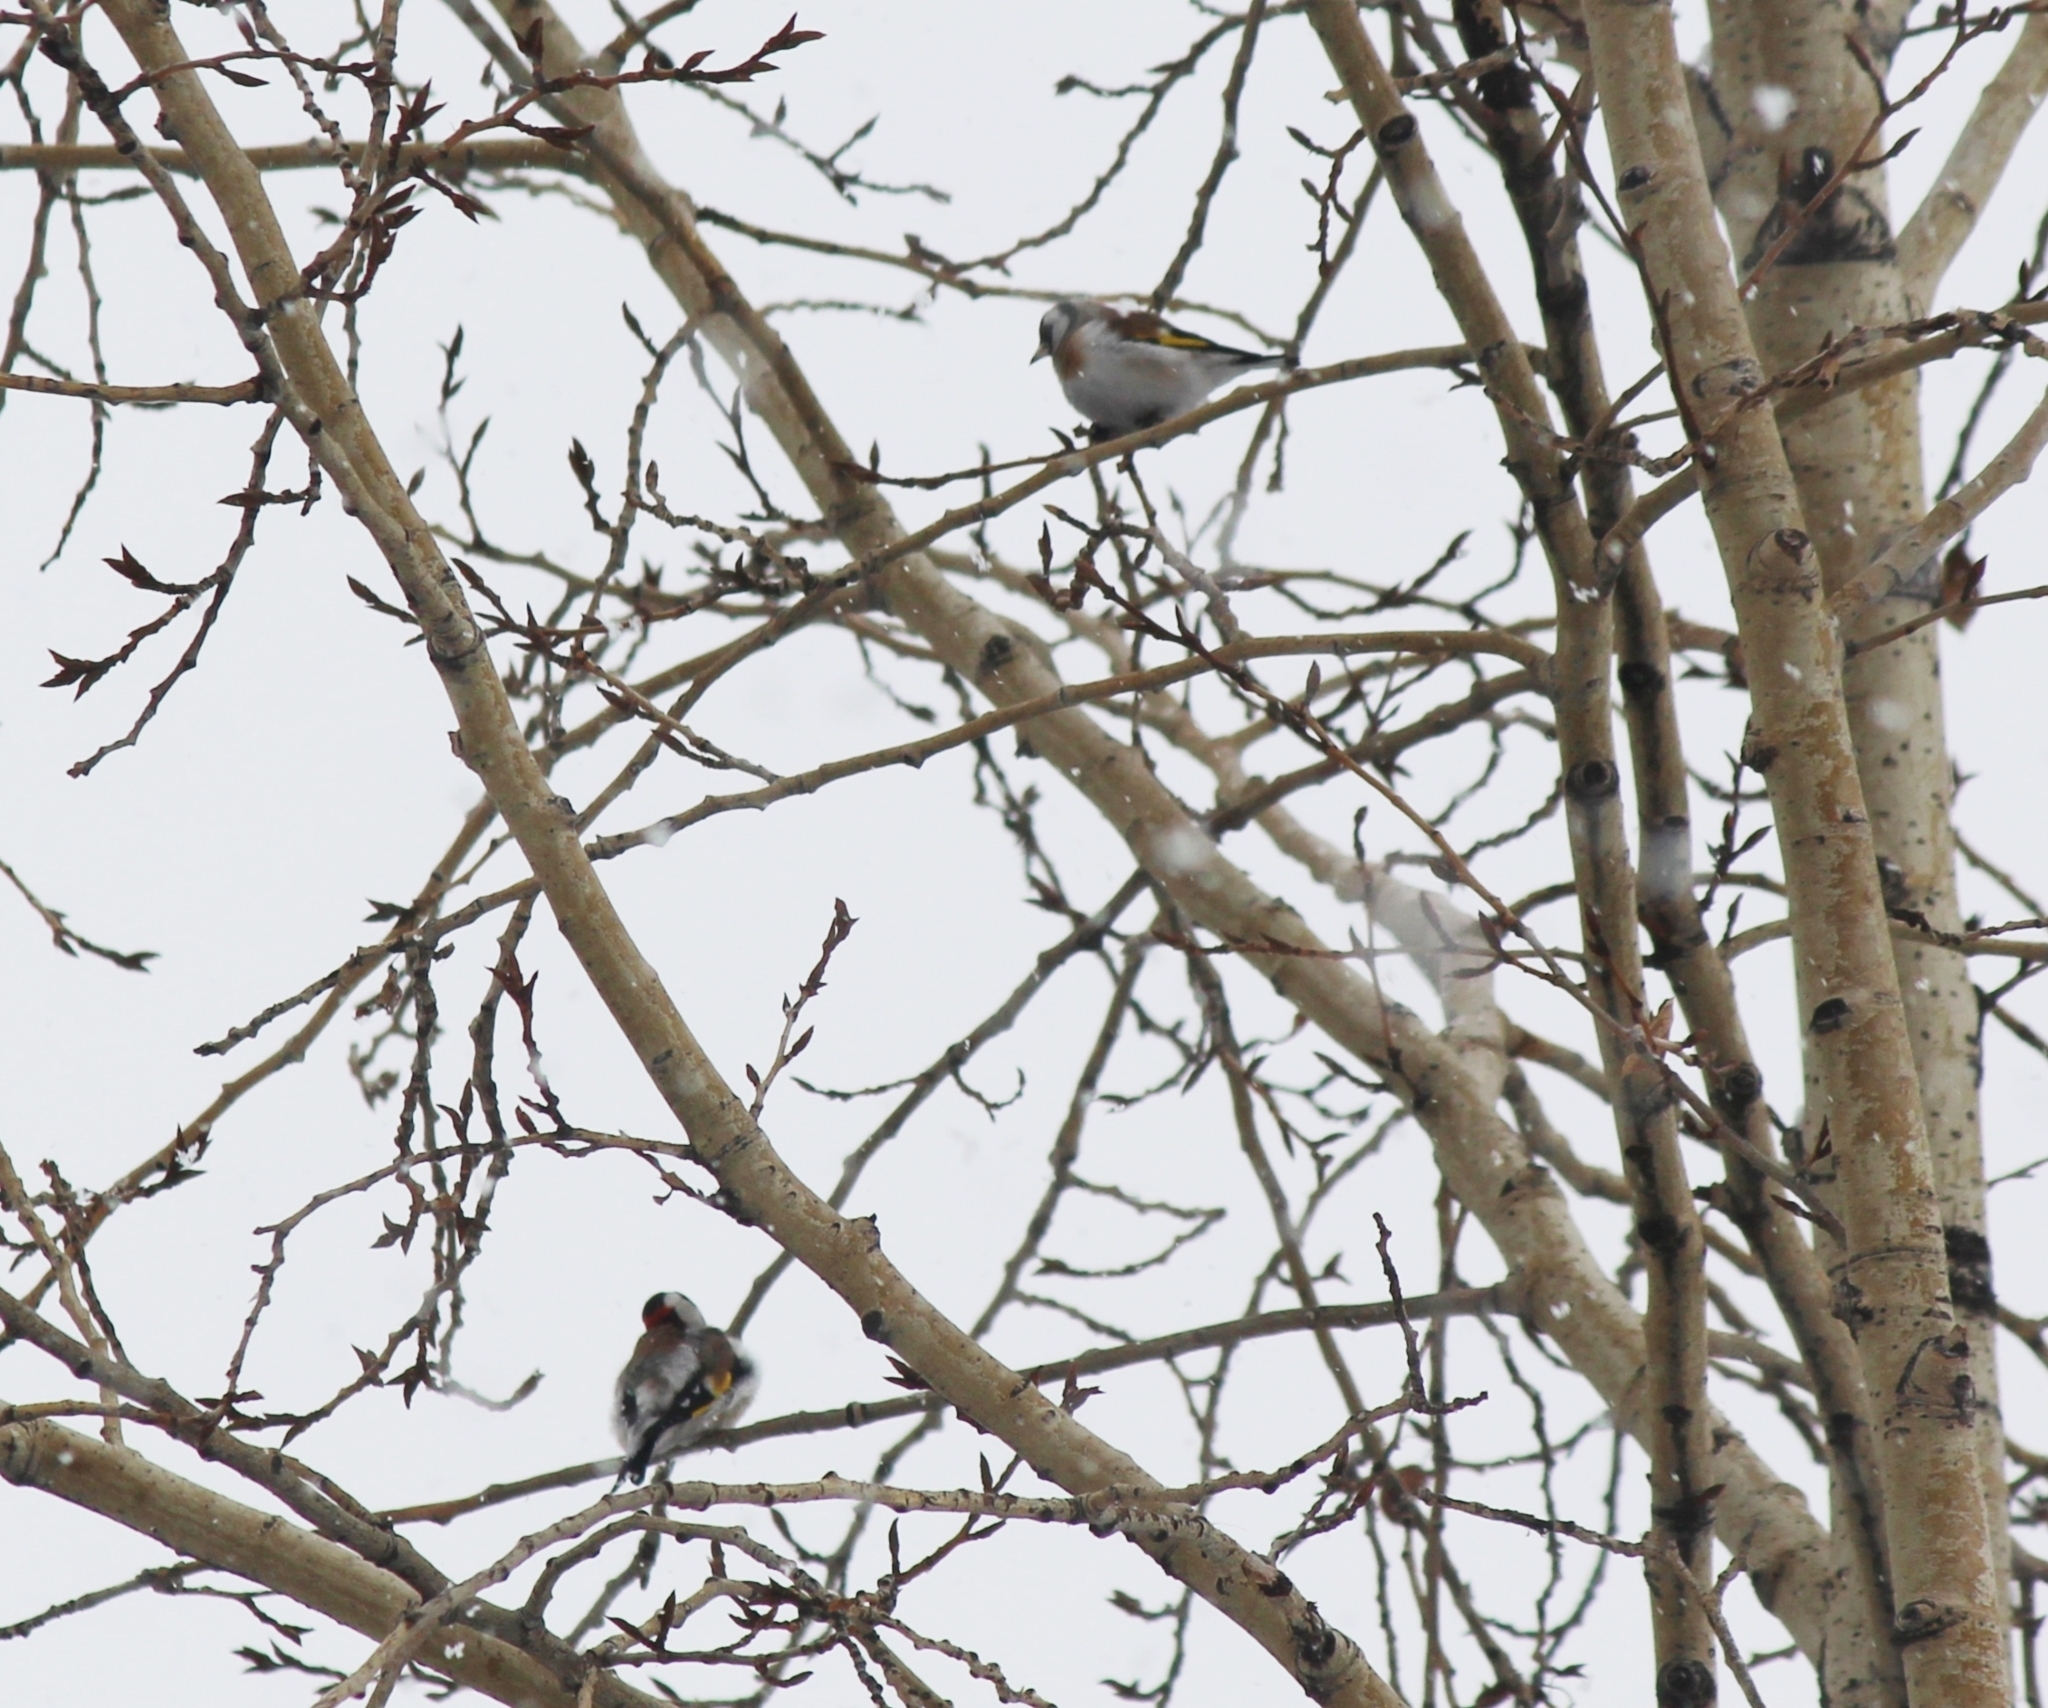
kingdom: Animalia
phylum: Chordata
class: Aves
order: Passeriformes
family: Fringillidae
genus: Carduelis
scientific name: Carduelis carduelis
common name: European goldfinch
